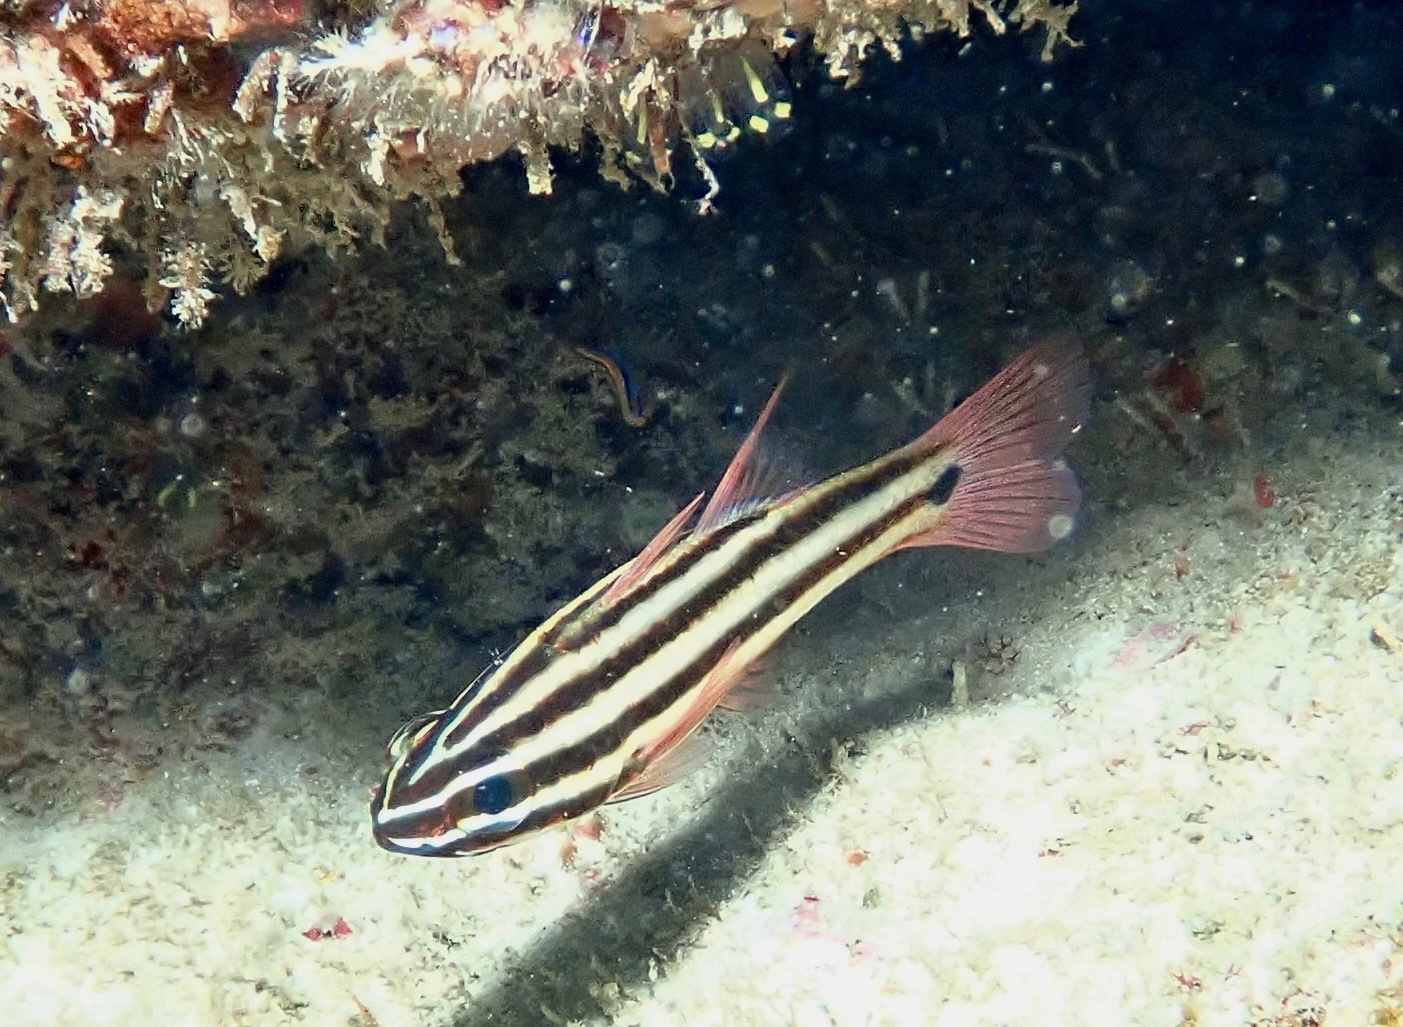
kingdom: Animalia
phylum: Chordata
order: Perciformes
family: Apogonidae
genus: Ostorhinchus
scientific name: Ostorhinchus angustatus
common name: Narrow-striped cardinalfish
